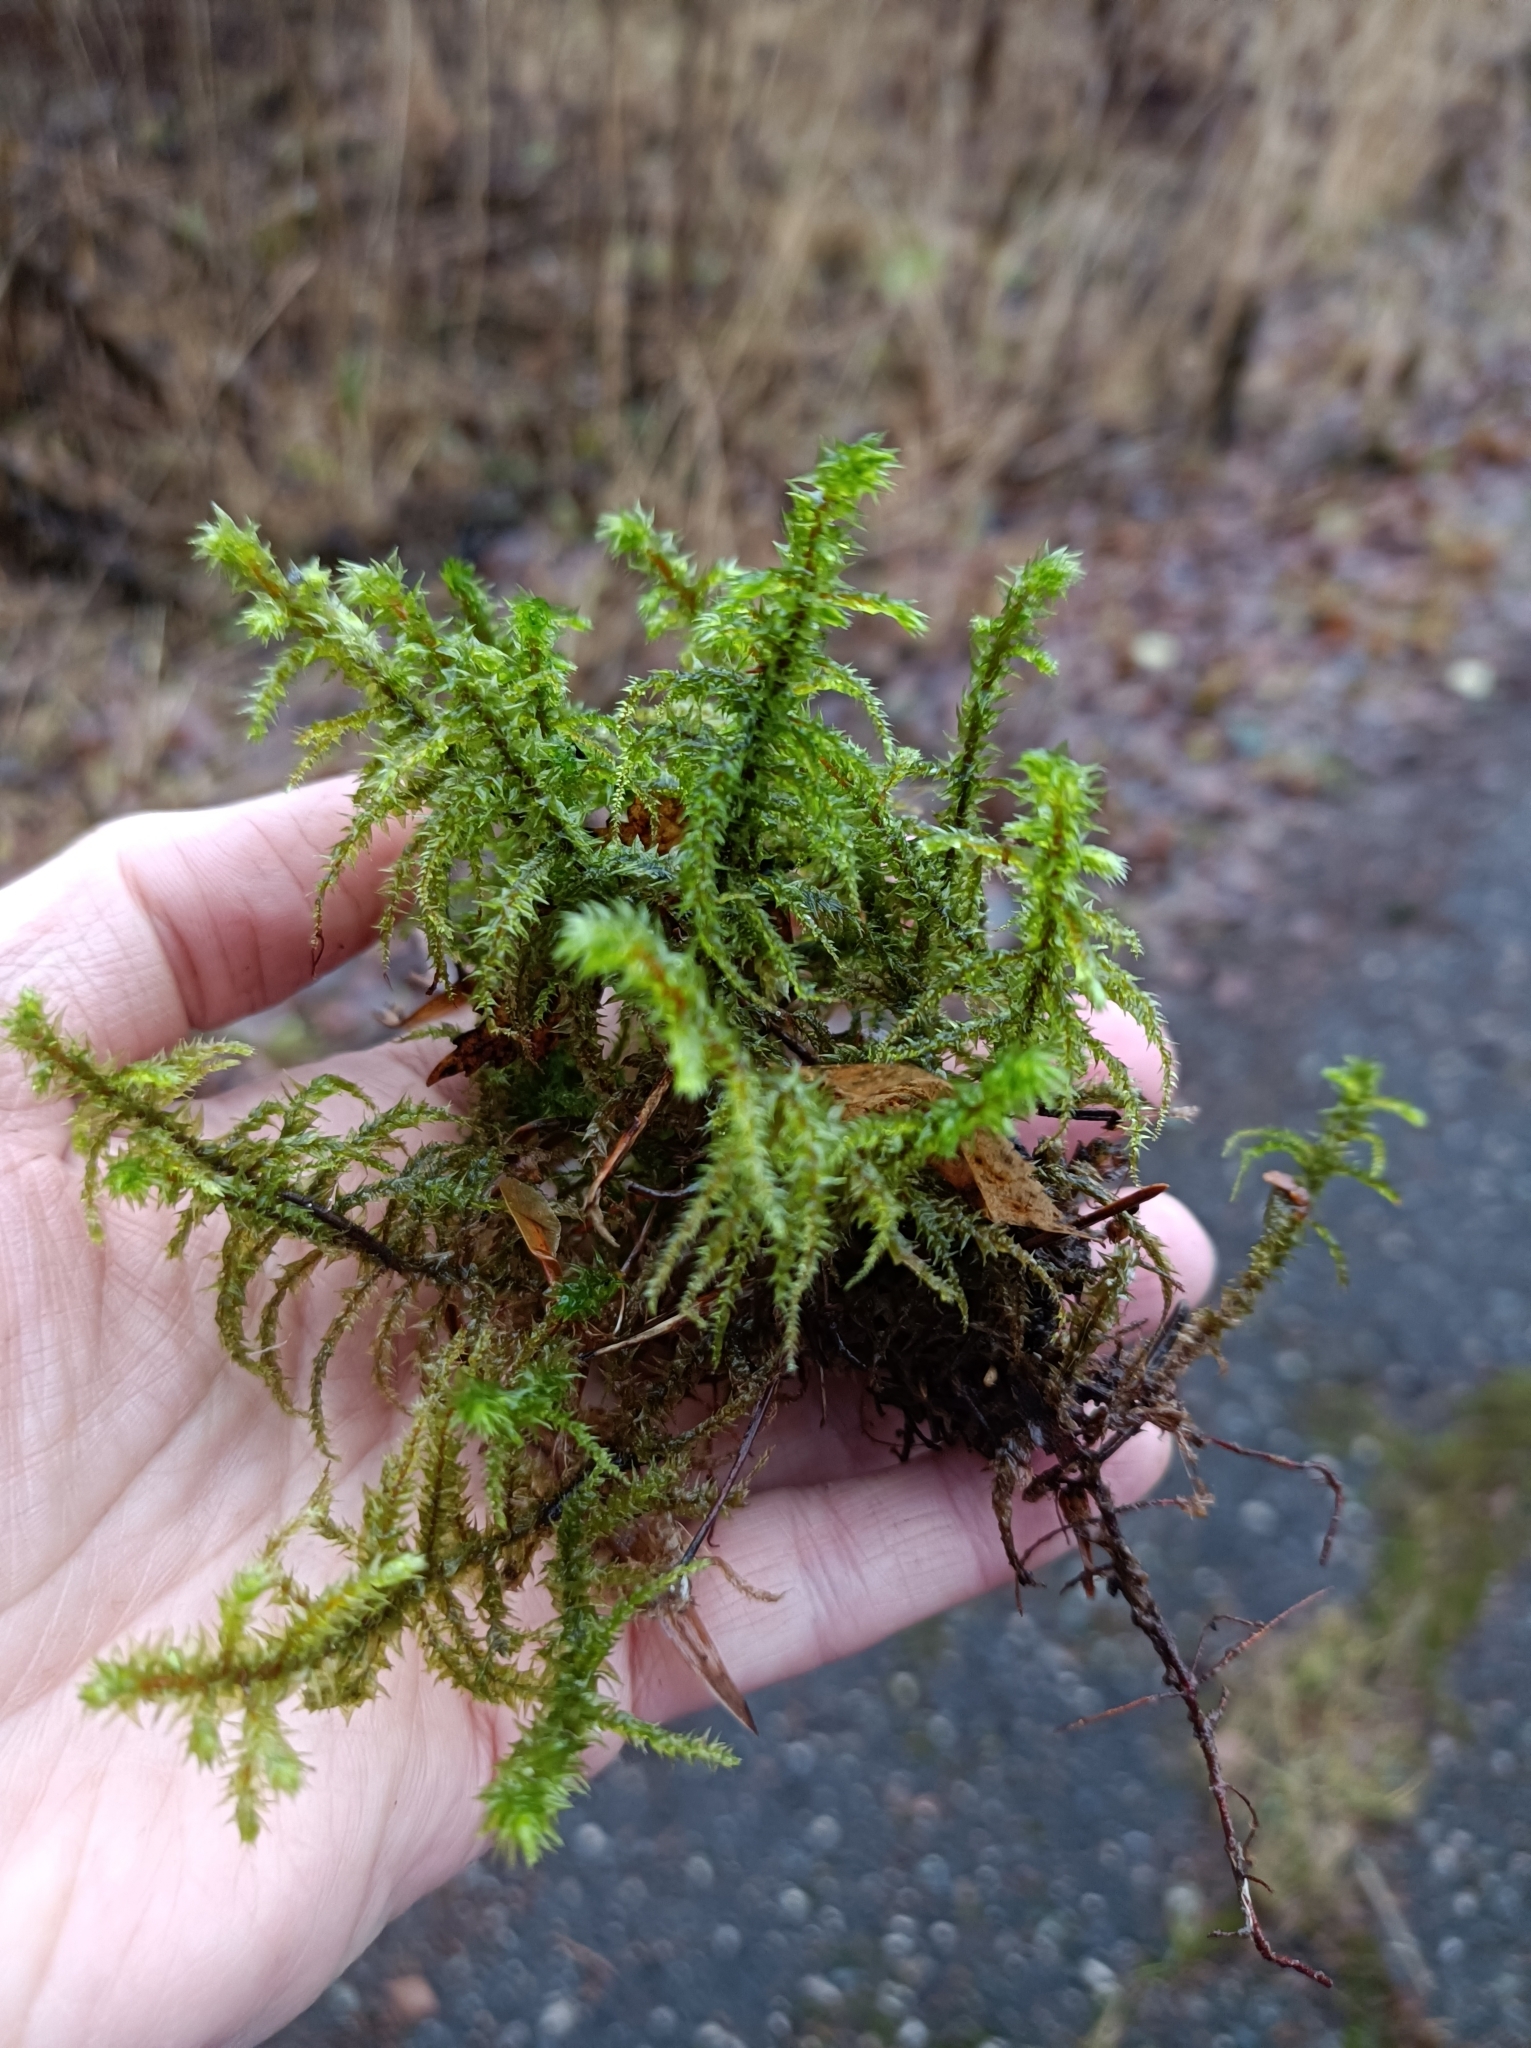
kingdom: Plantae
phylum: Bryophyta
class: Bryopsida
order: Hypnales
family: Hylocomiaceae
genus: Hylocomiadelphus
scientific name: Hylocomiadelphus triquetrus
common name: Rough goose neck moss
